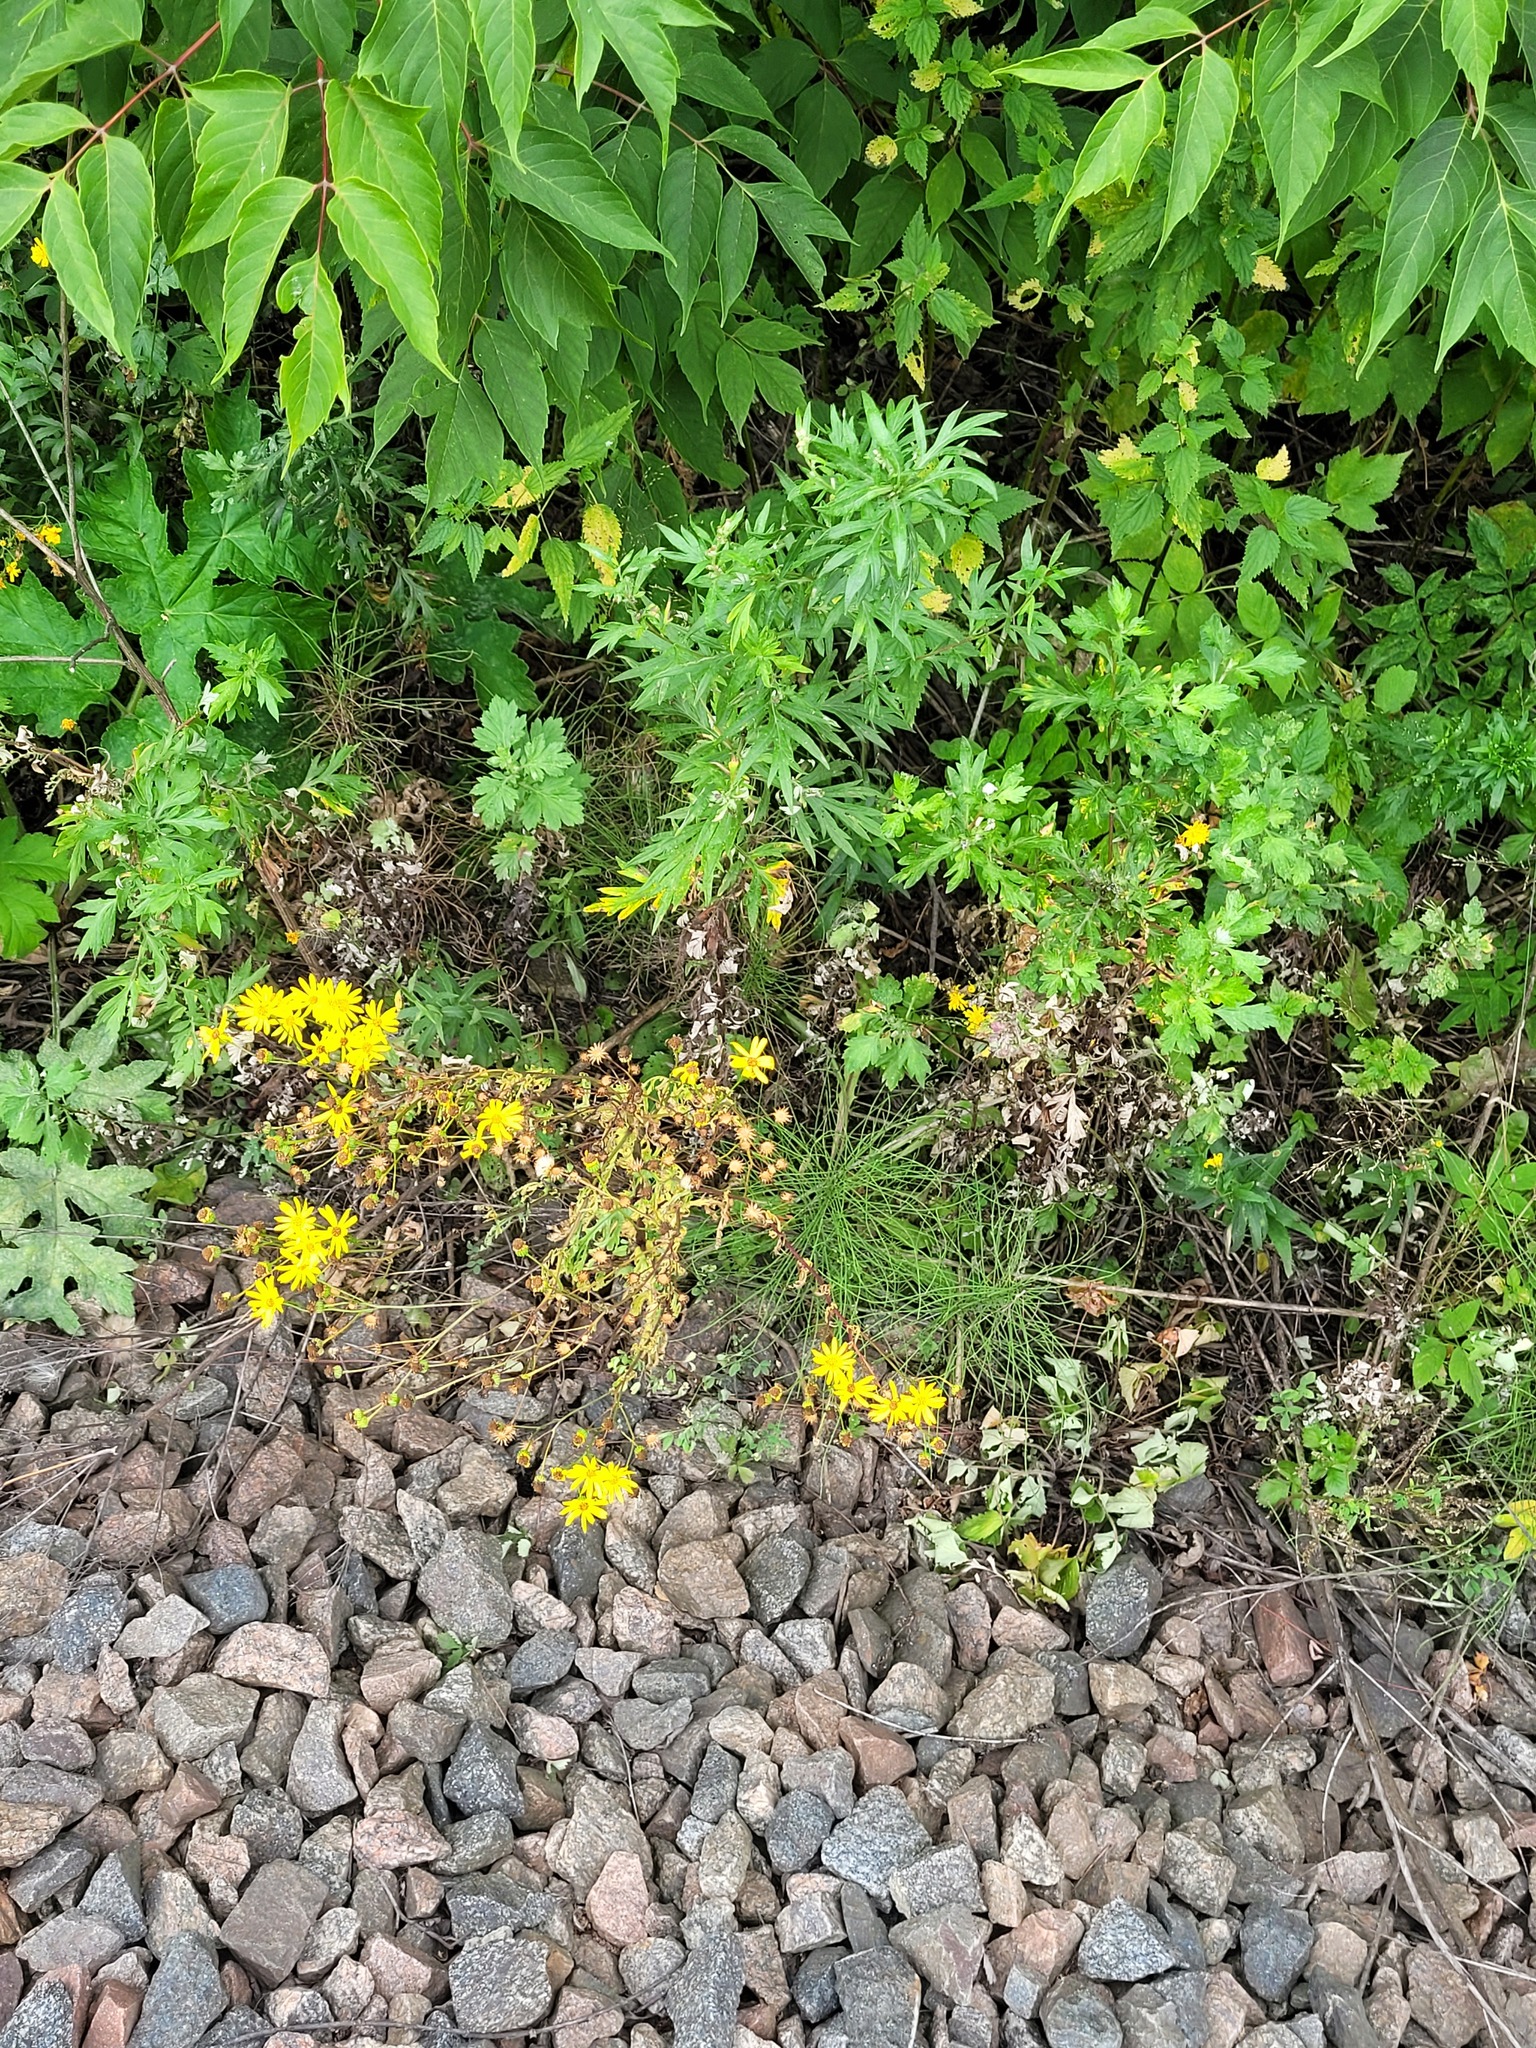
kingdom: Plantae
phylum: Tracheophyta
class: Magnoliopsida
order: Asterales
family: Asteraceae
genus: Jacobaea
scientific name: Jacobaea vulgaris
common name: Stinking willie
